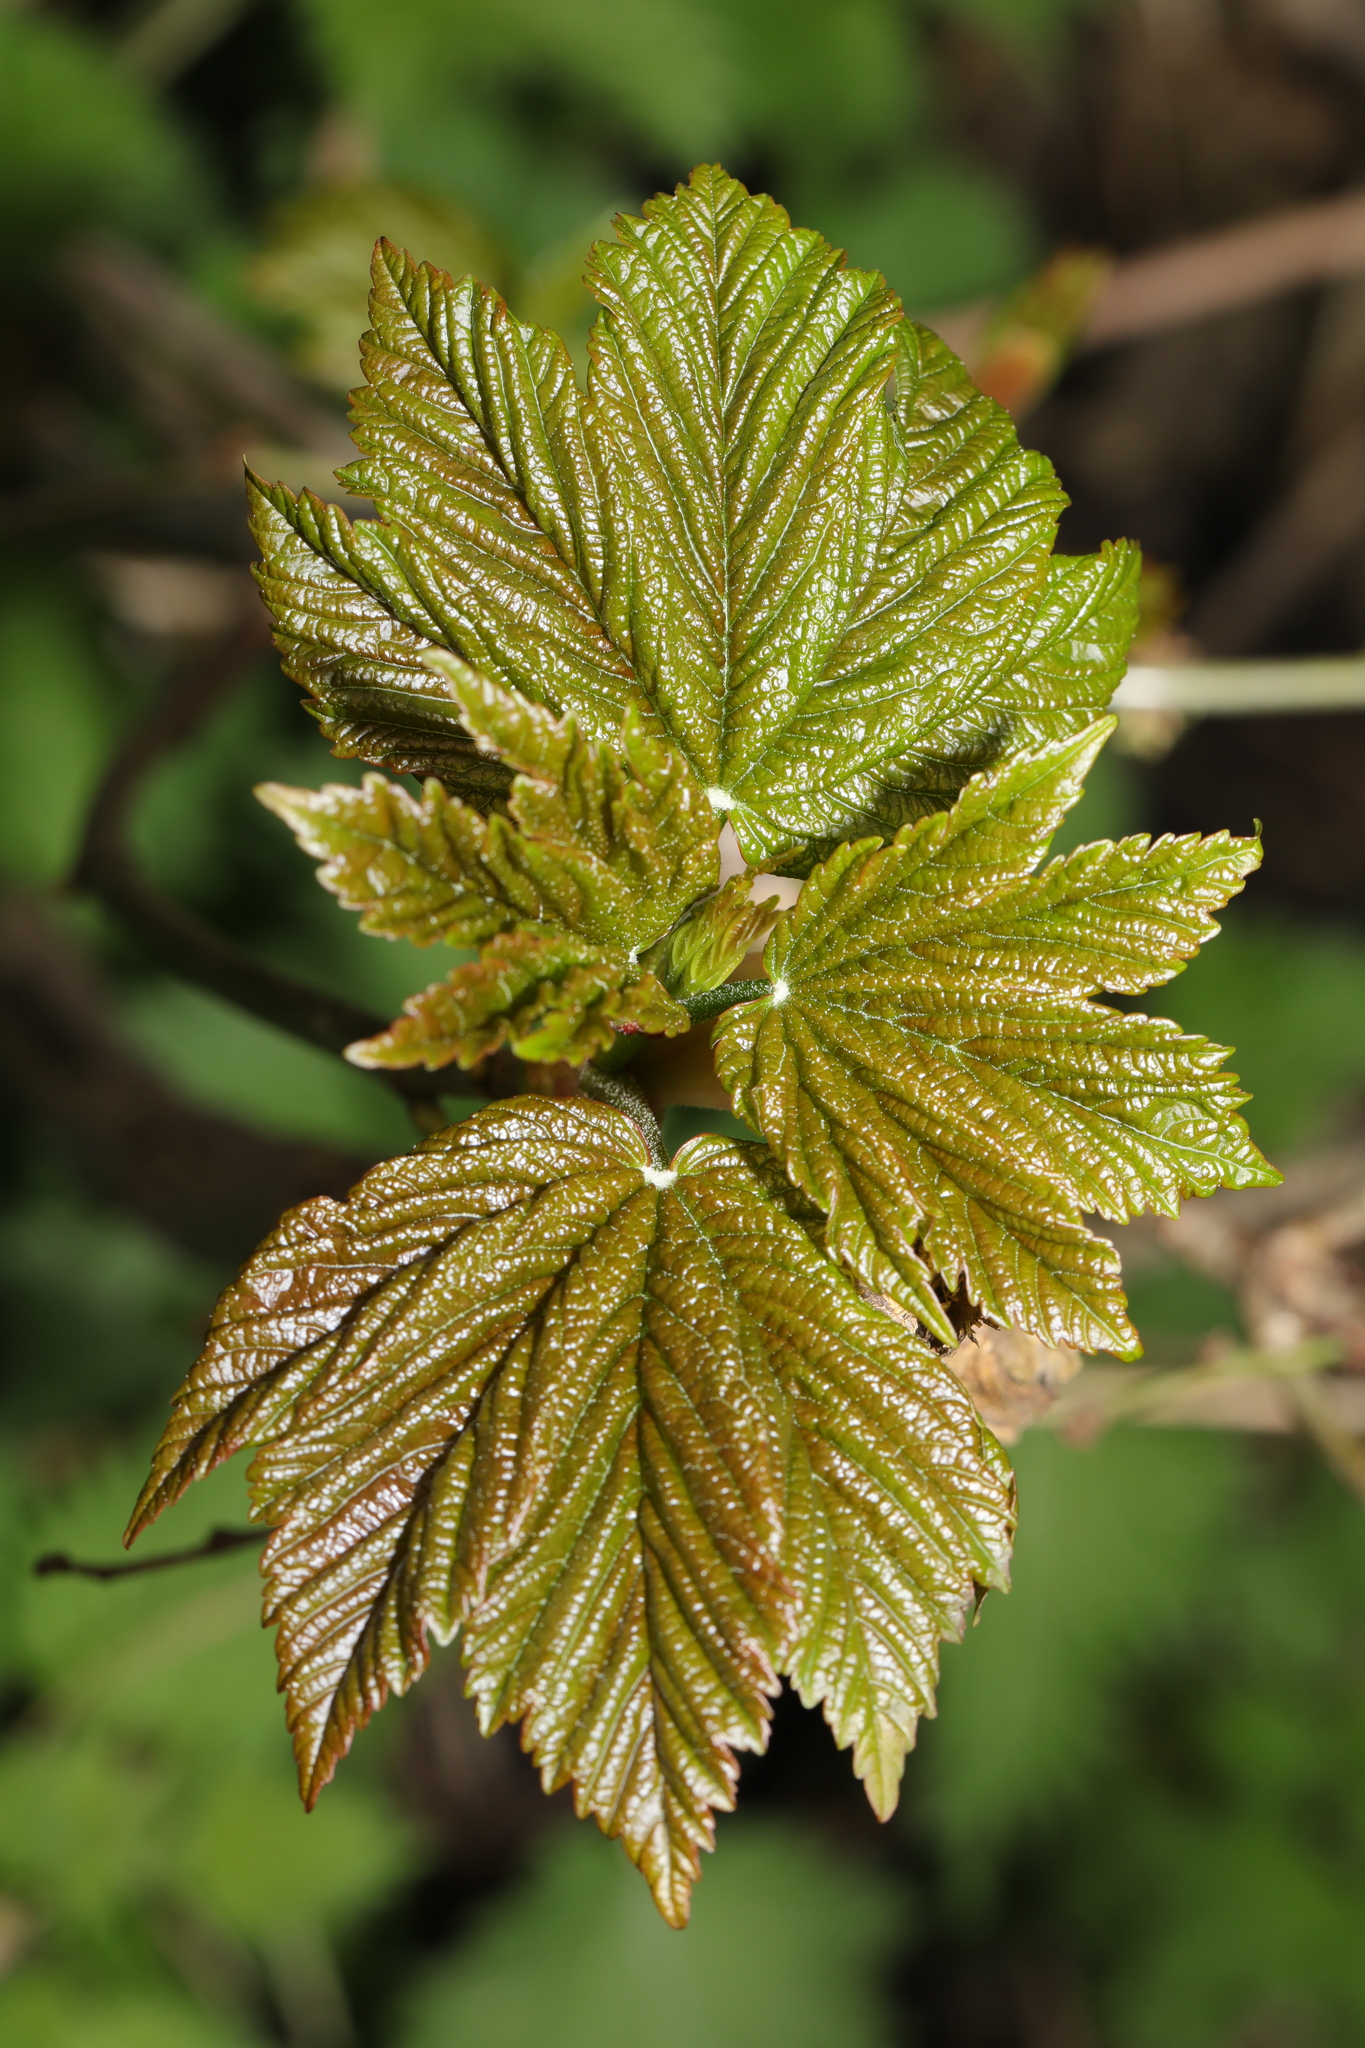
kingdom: Plantae
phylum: Tracheophyta
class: Magnoliopsida
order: Sapindales
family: Sapindaceae
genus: Acer
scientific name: Acer pseudoplatanus
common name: Sycamore
